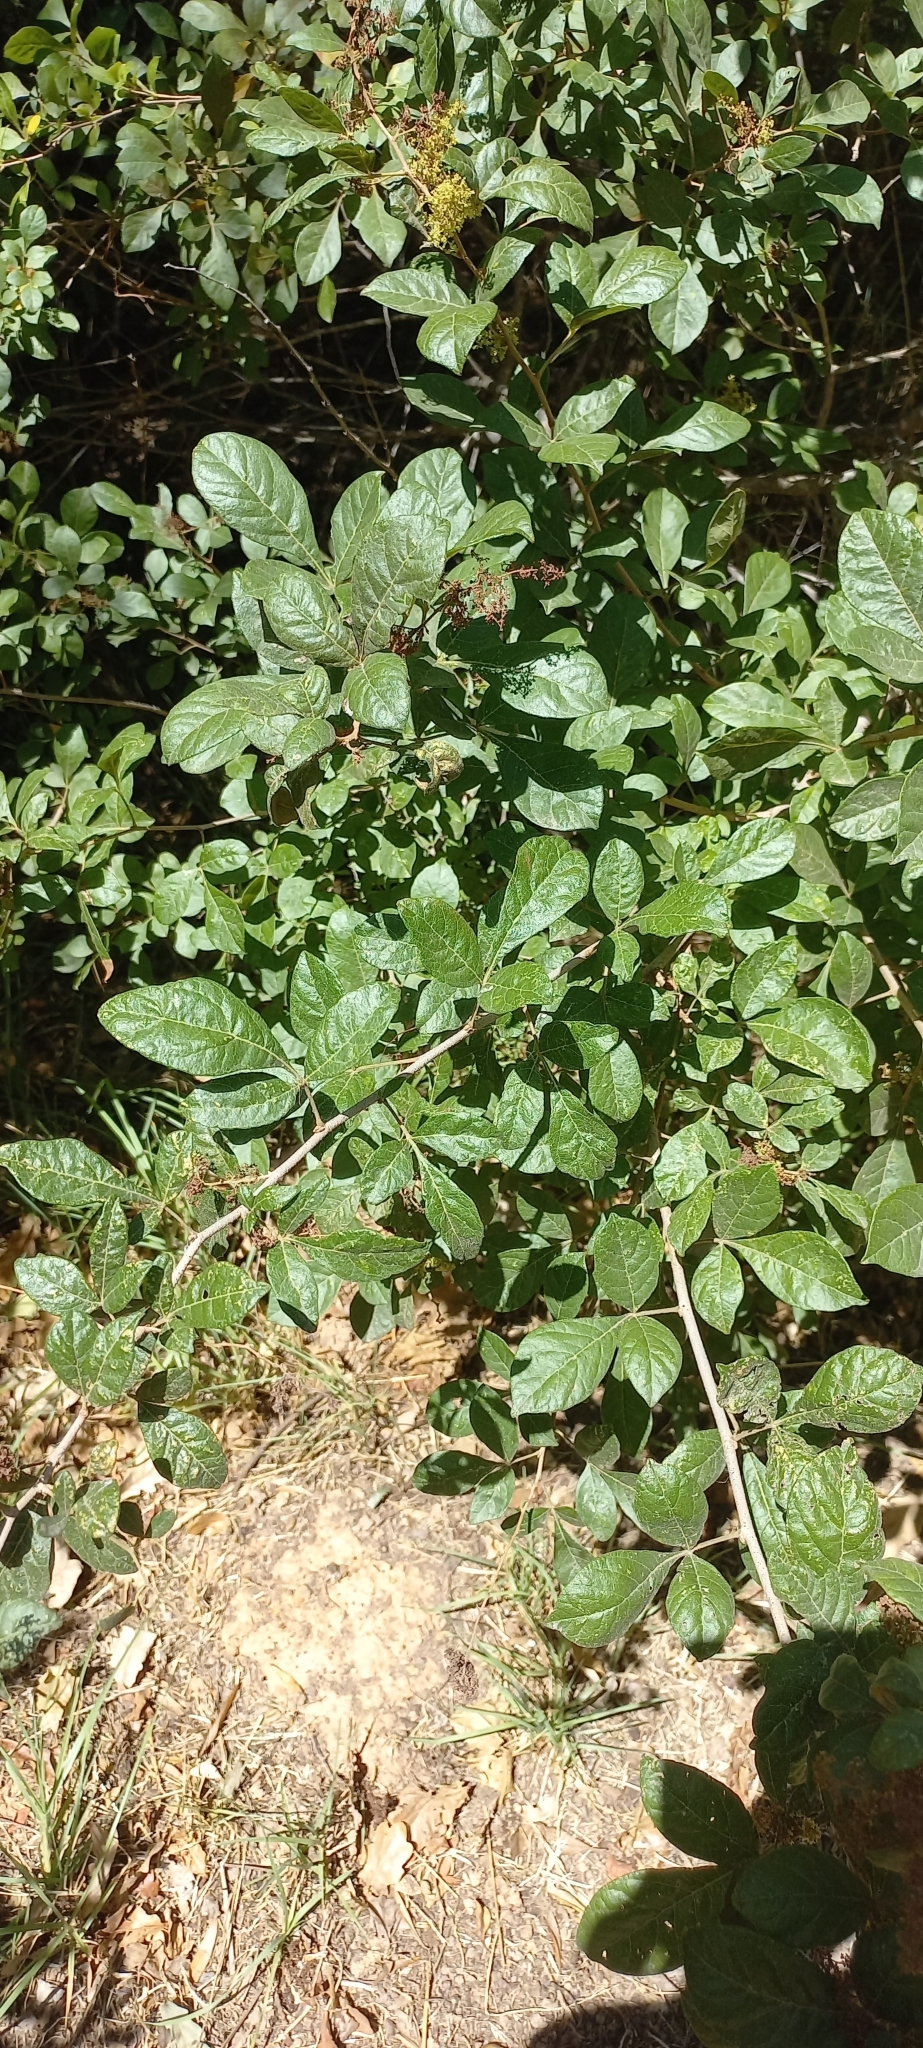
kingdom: Plantae
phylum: Tracheophyta
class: Magnoliopsida
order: Sapindales
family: Anacardiaceae
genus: Searsia
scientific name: Searsia laevigata
